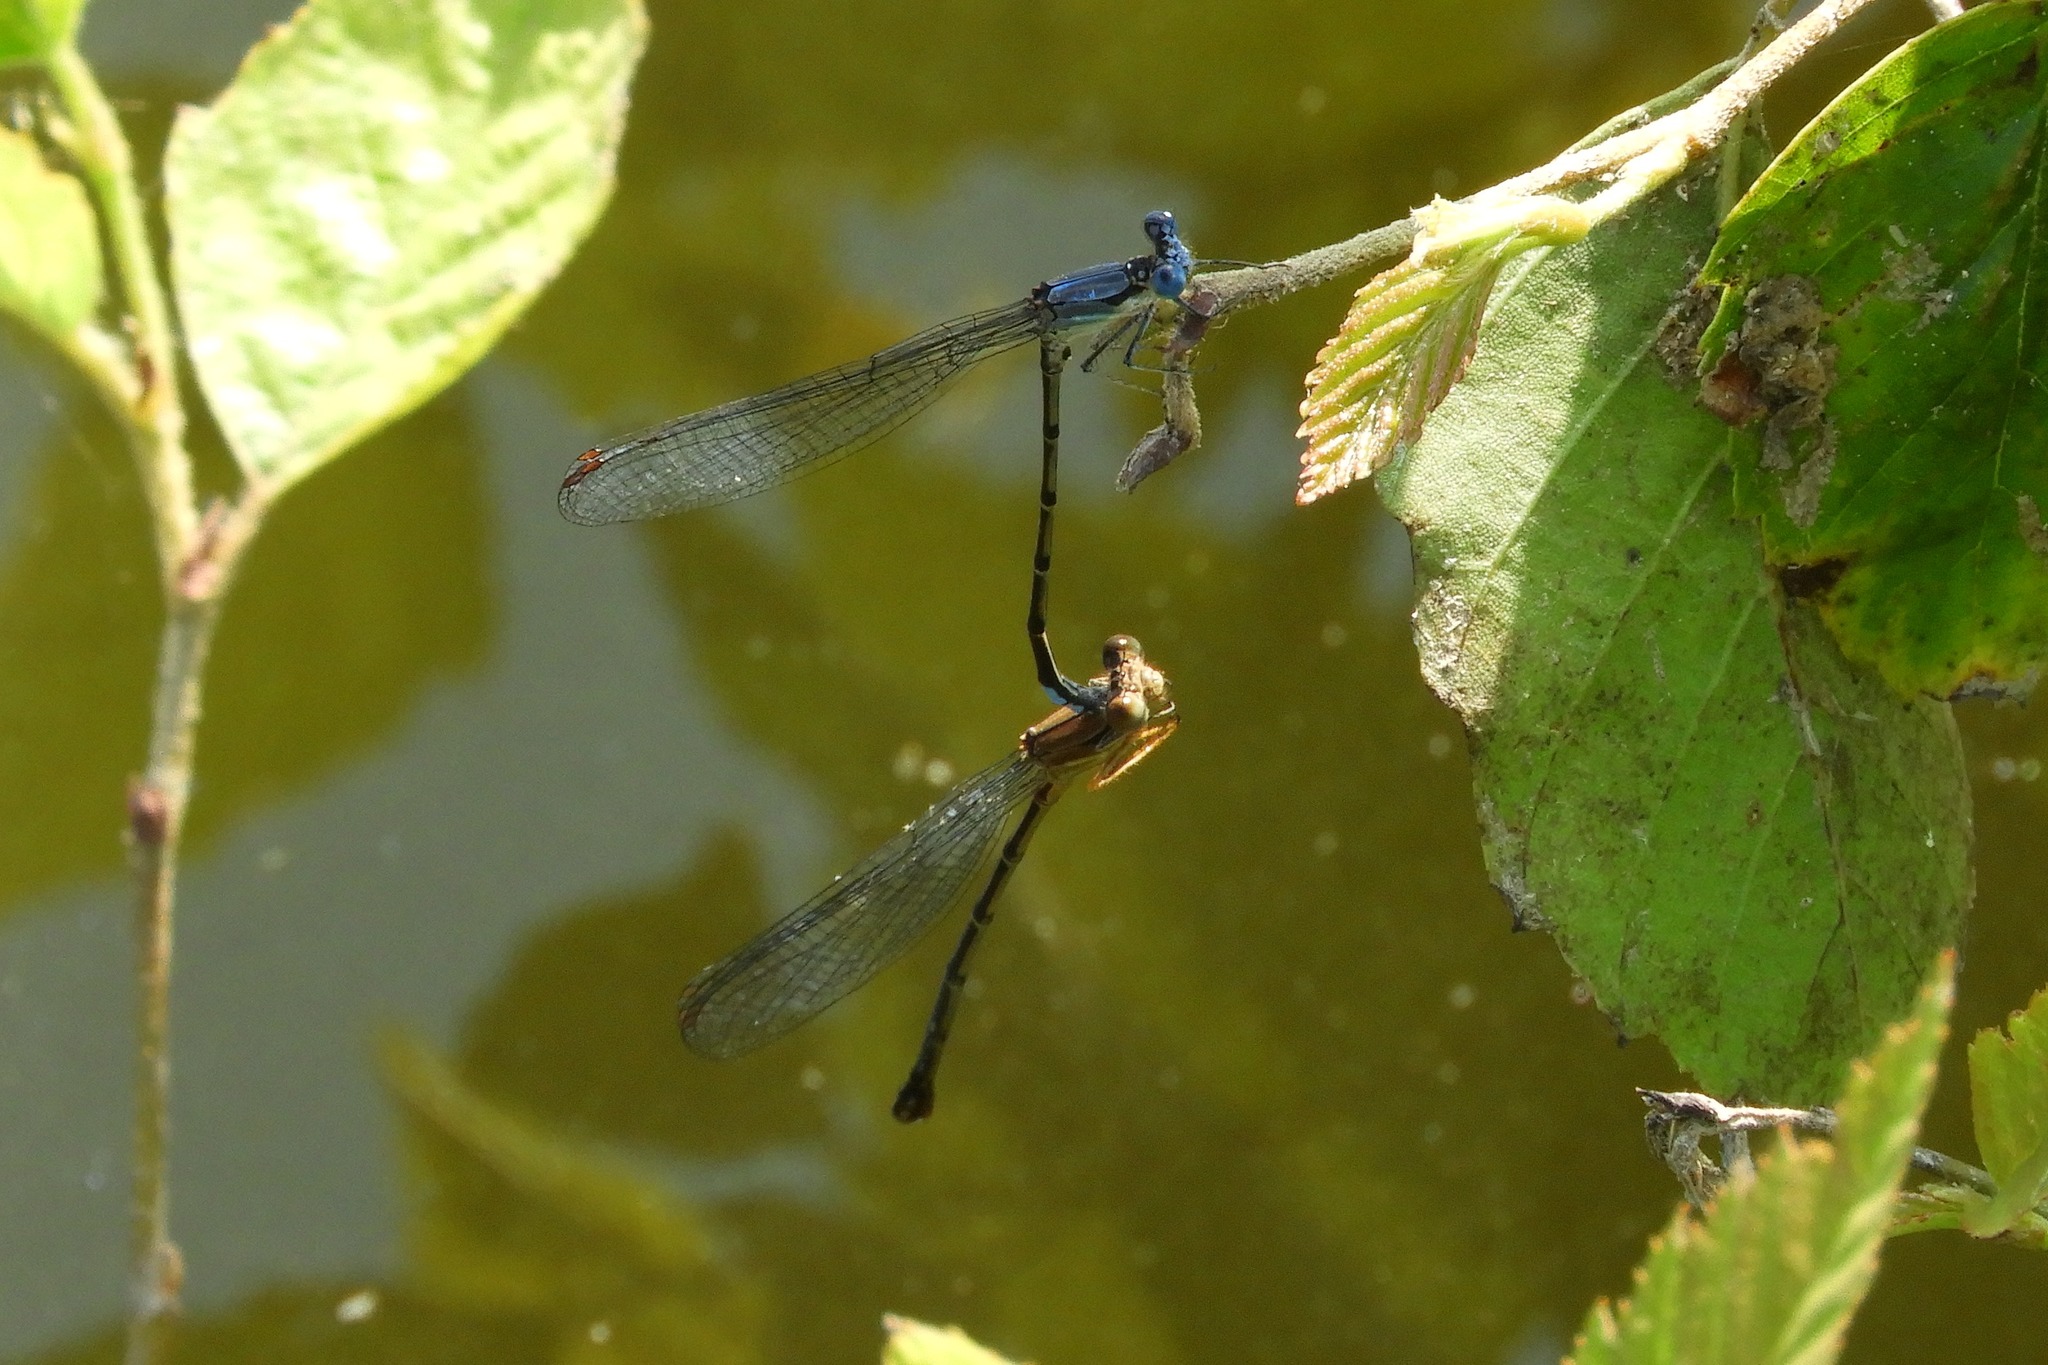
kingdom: Animalia
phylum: Arthropoda
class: Insecta
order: Odonata
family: Coenagrionidae
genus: Argia
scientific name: Argia apicalis
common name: Blue-fronted dancer
